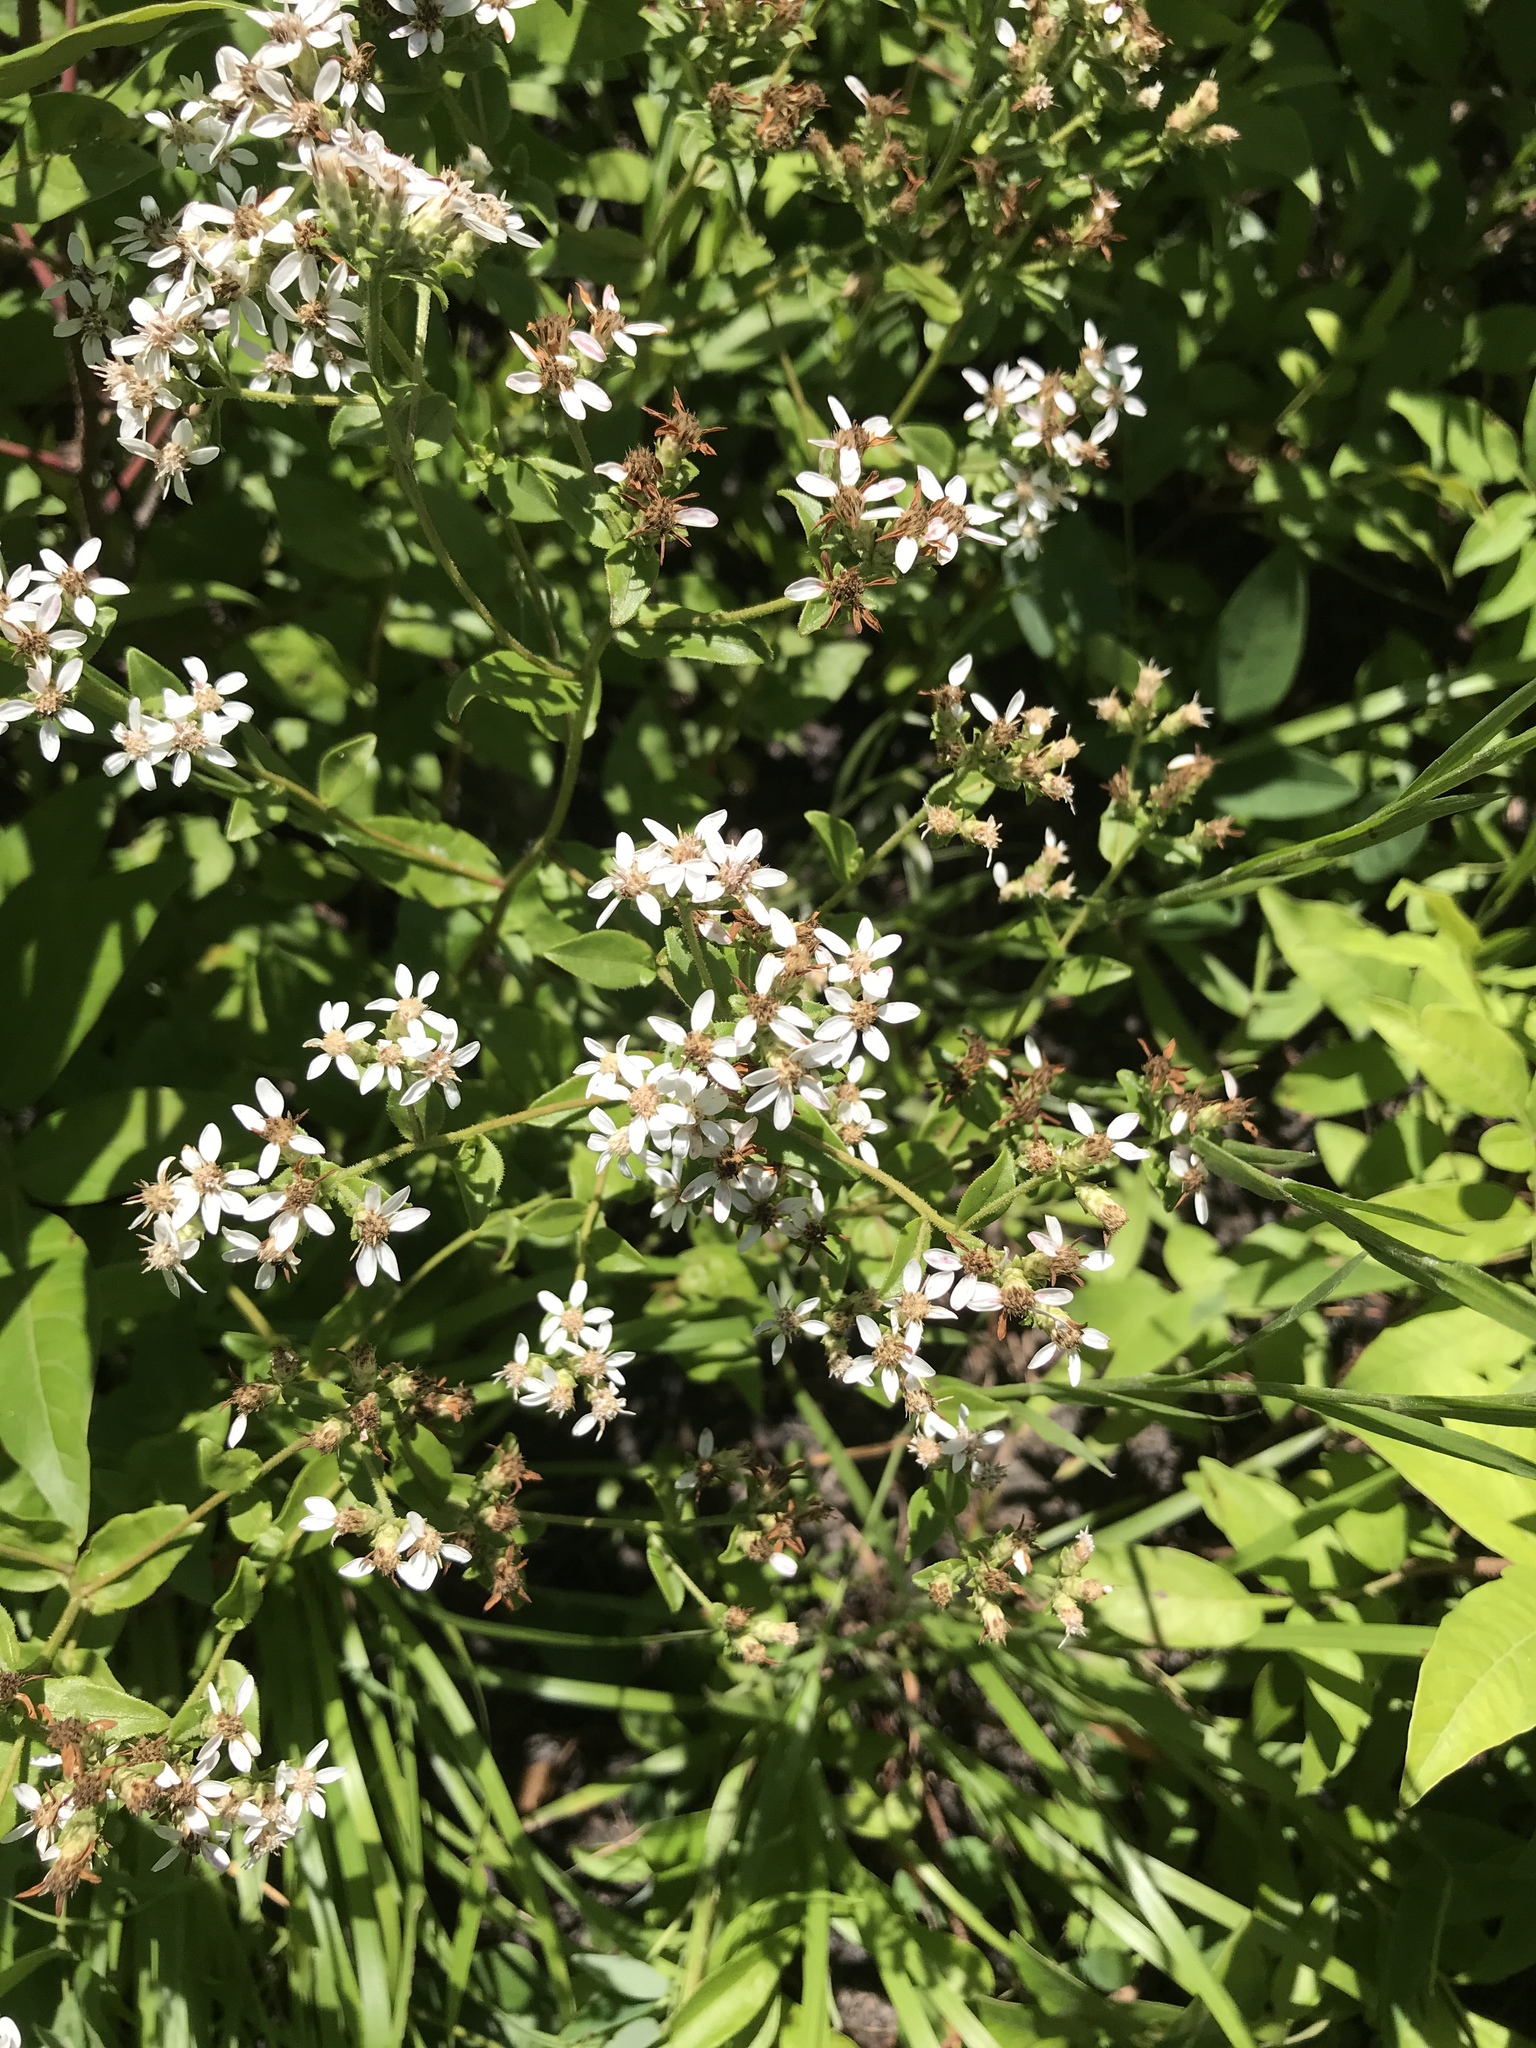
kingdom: Plantae
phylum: Tracheophyta
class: Magnoliopsida
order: Asterales
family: Asteraceae
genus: Sericocarpus
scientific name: Sericocarpus asteroides
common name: Toothed white-top aster
